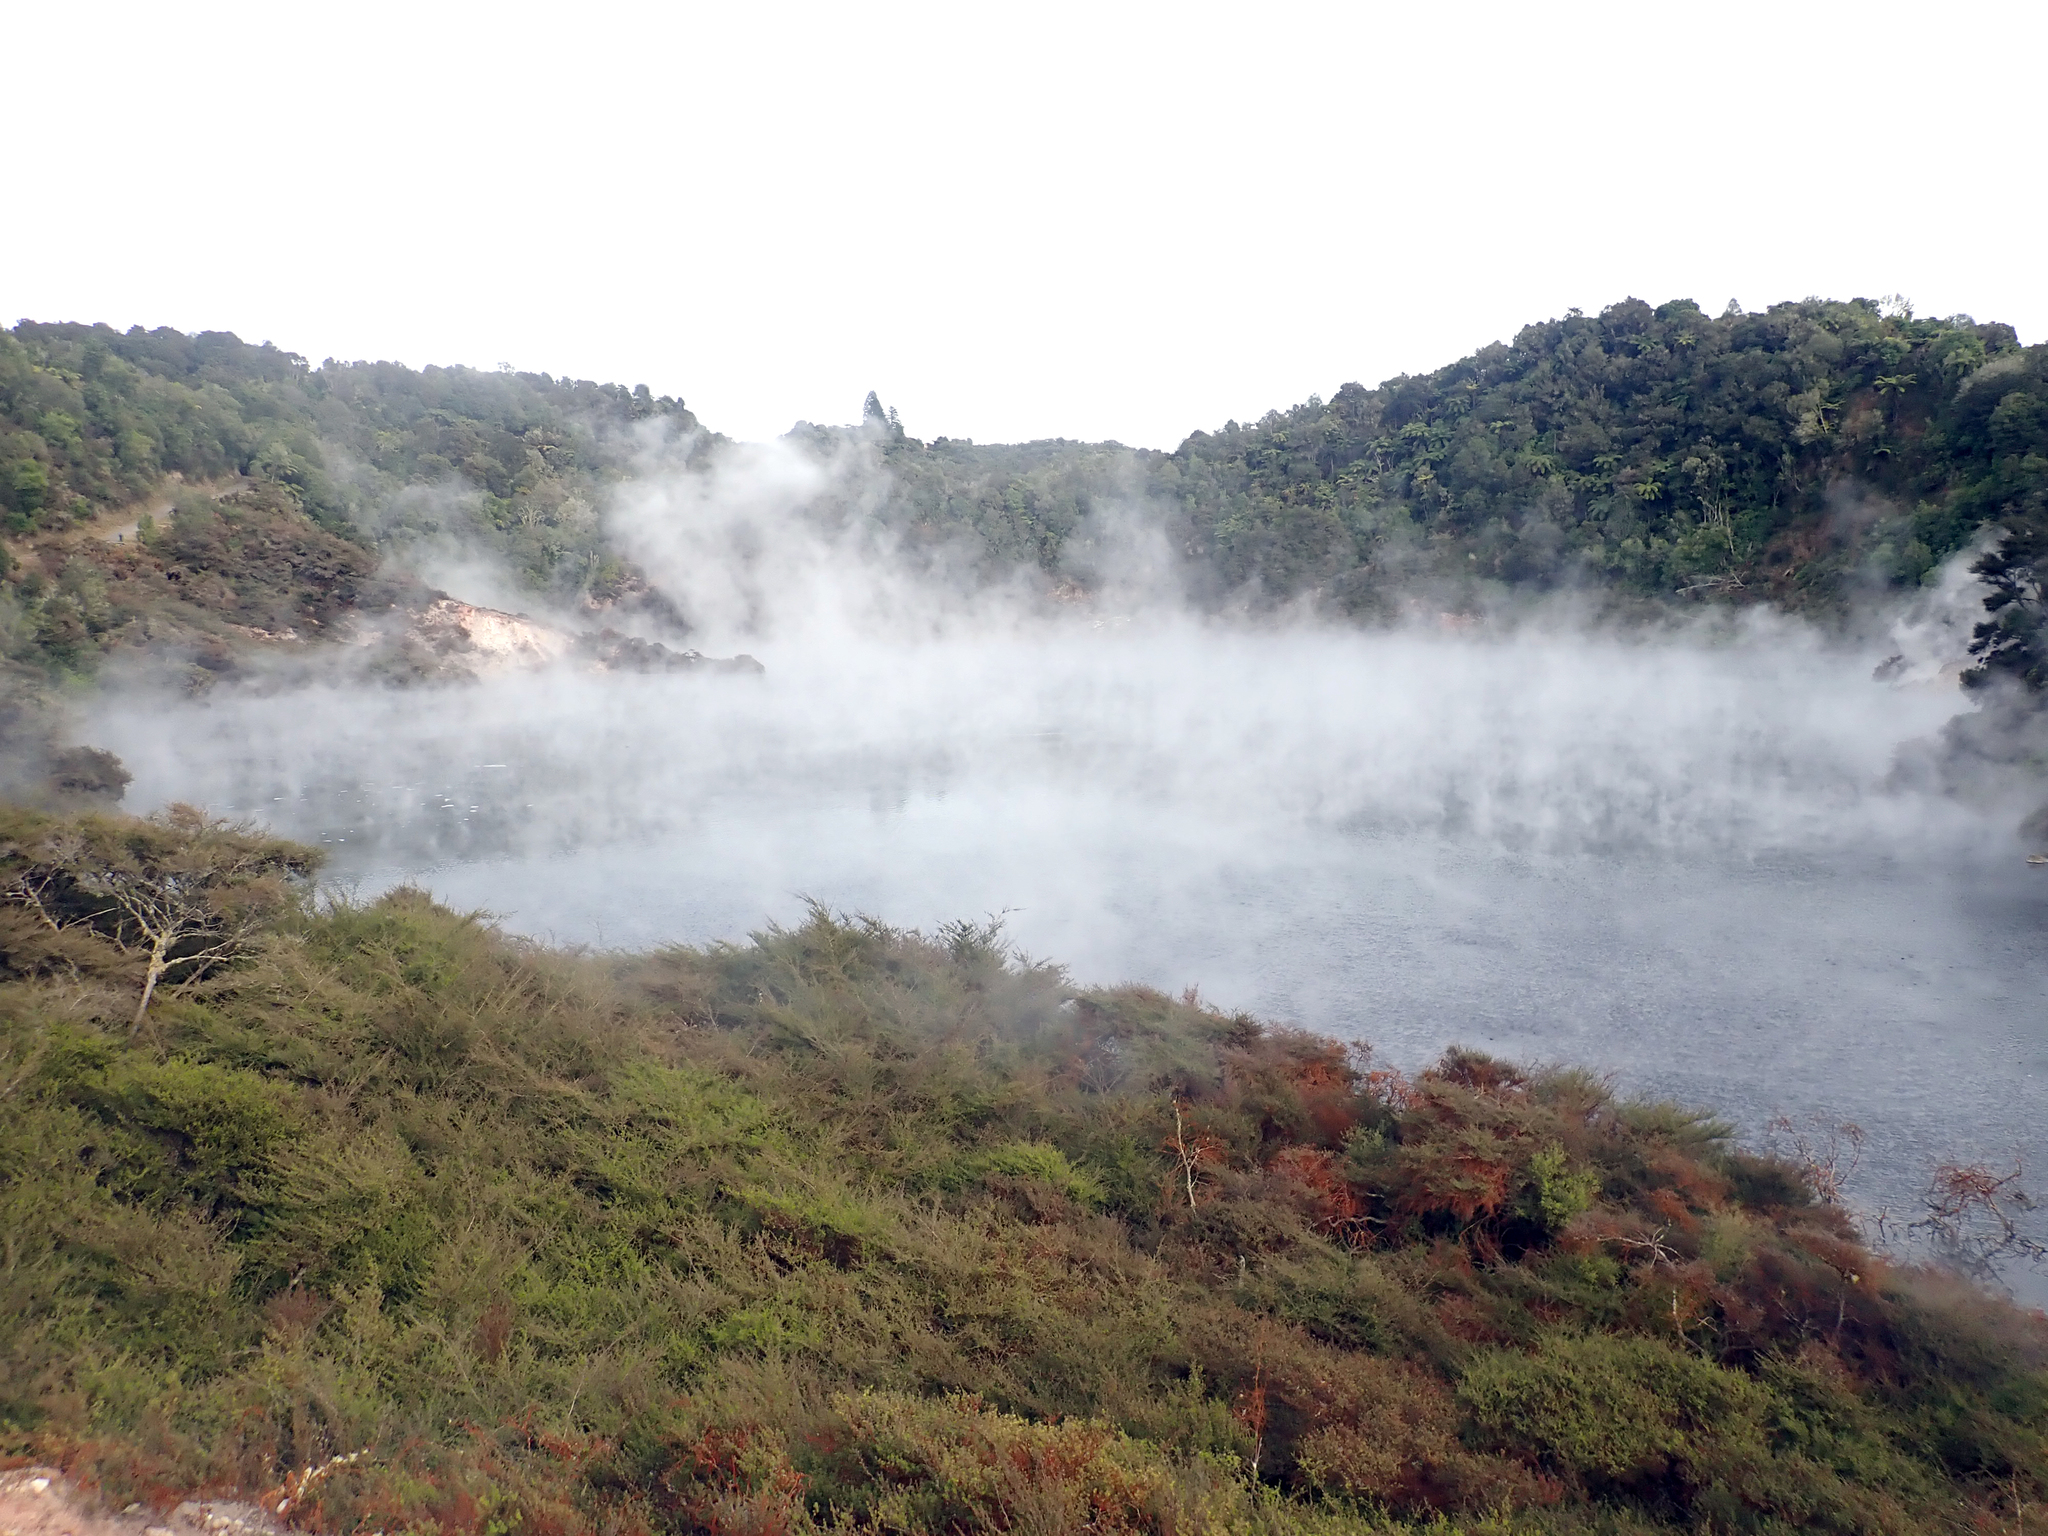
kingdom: Plantae
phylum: Tracheophyta
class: Magnoliopsida
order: Myrtales
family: Myrtaceae
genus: Kunzea
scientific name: Kunzea tenuicaulis
